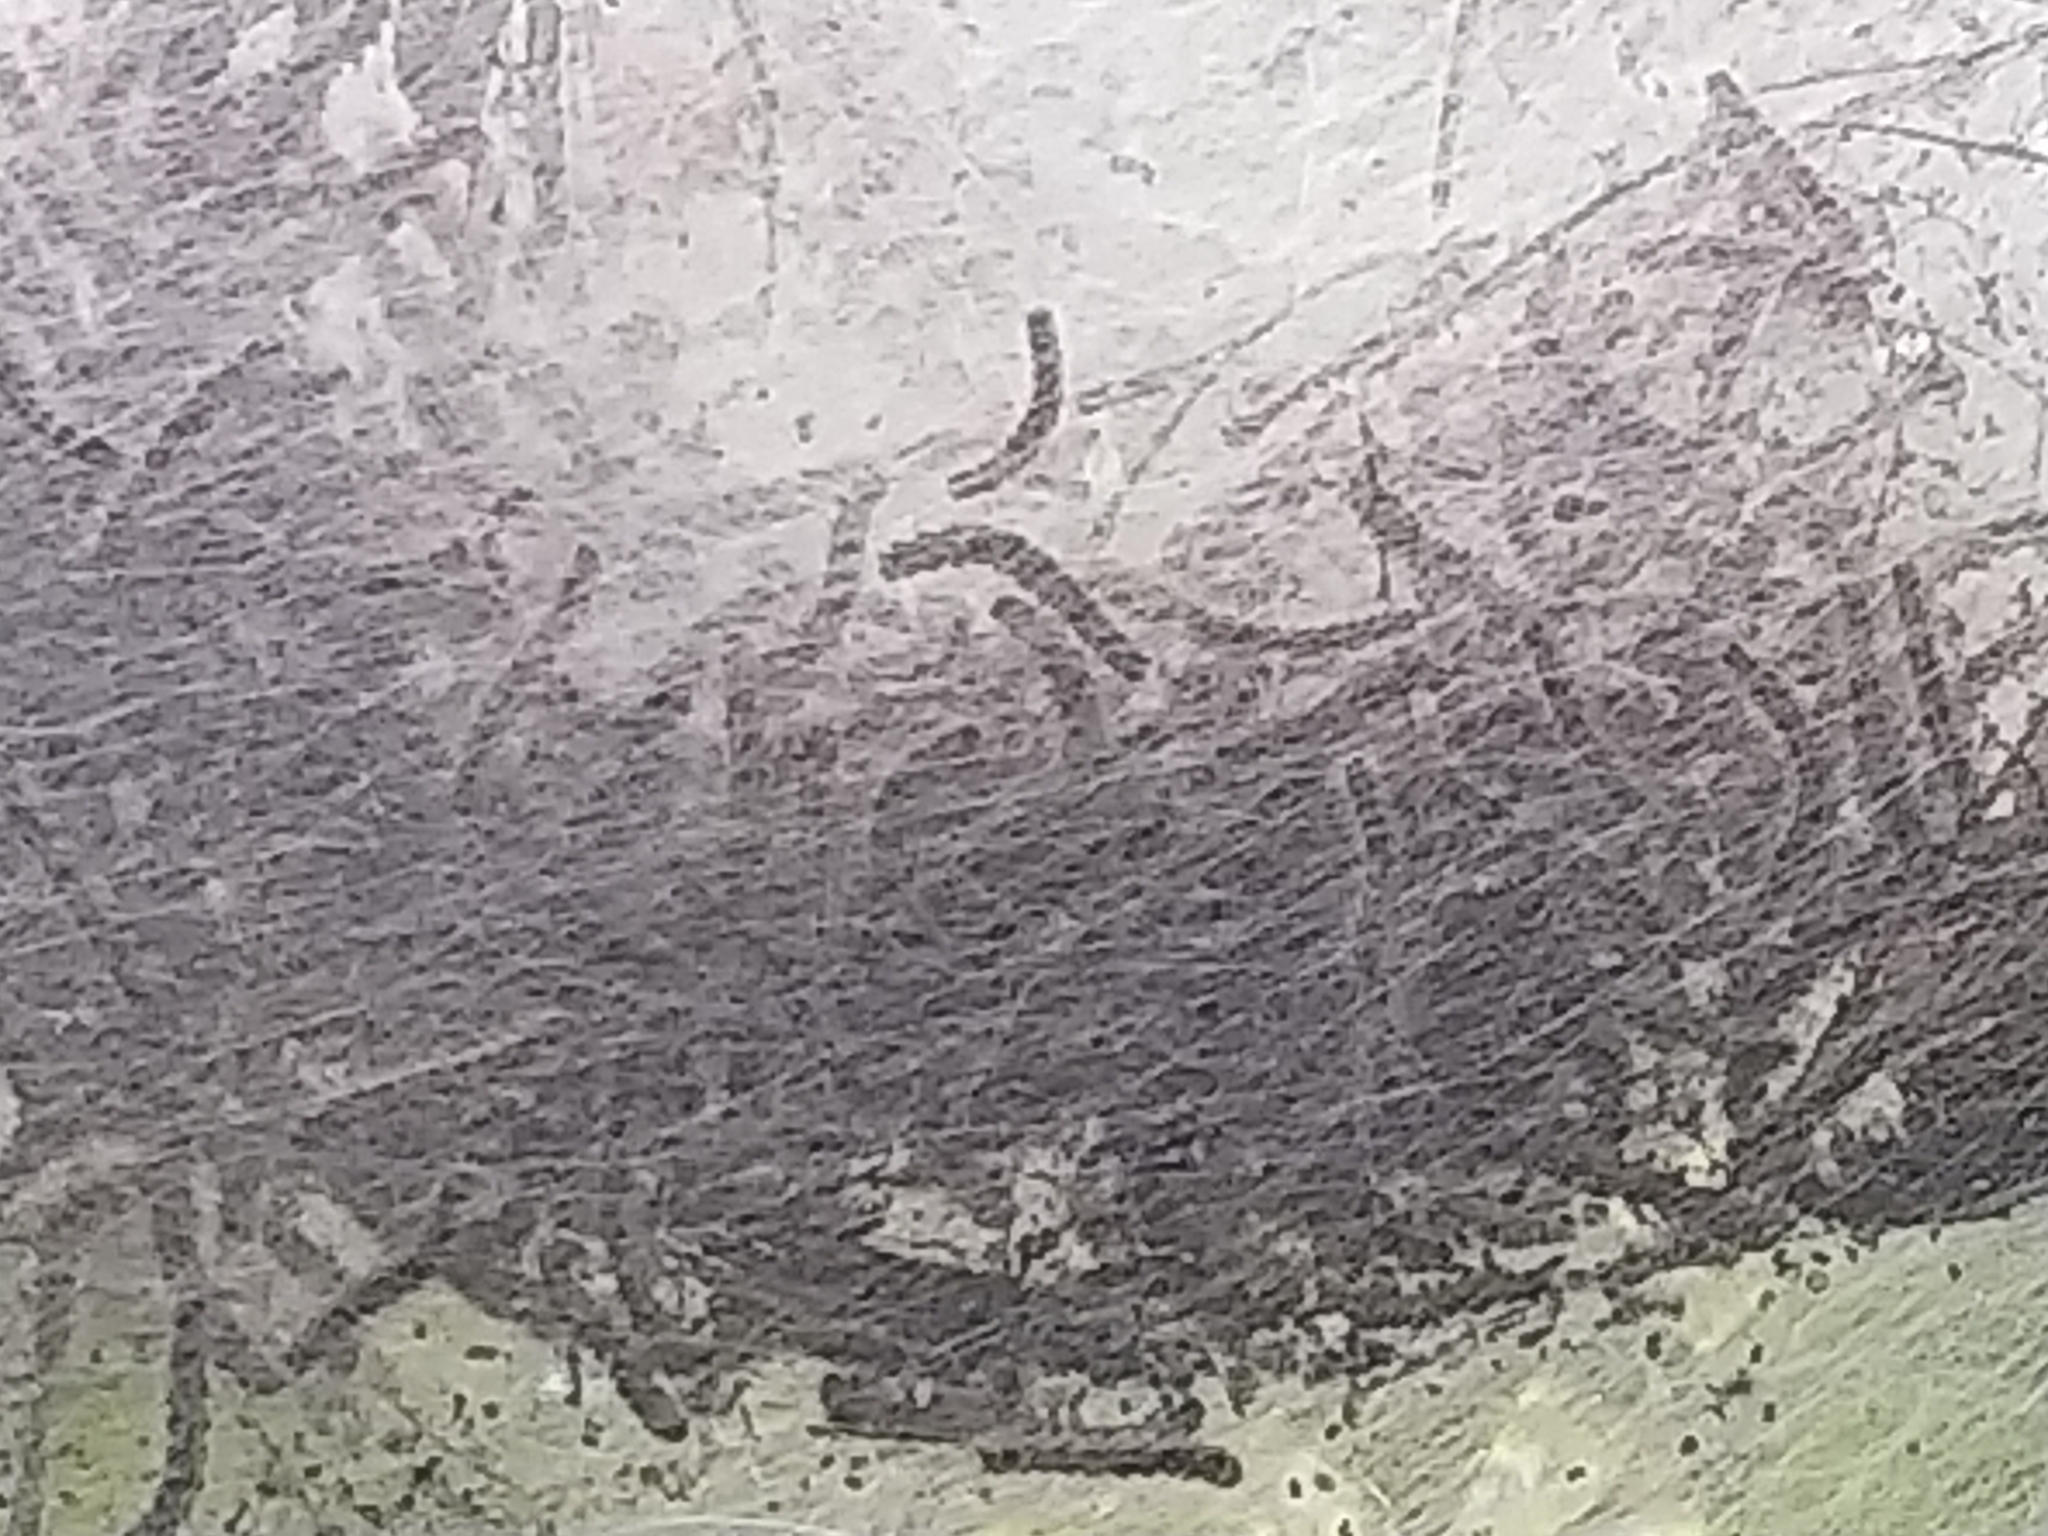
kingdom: Animalia
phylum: Arthropoda
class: Insecta
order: Lepidoptera
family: Erebidae
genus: Hyphantria
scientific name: Hyphantria cunea
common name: American white moth
